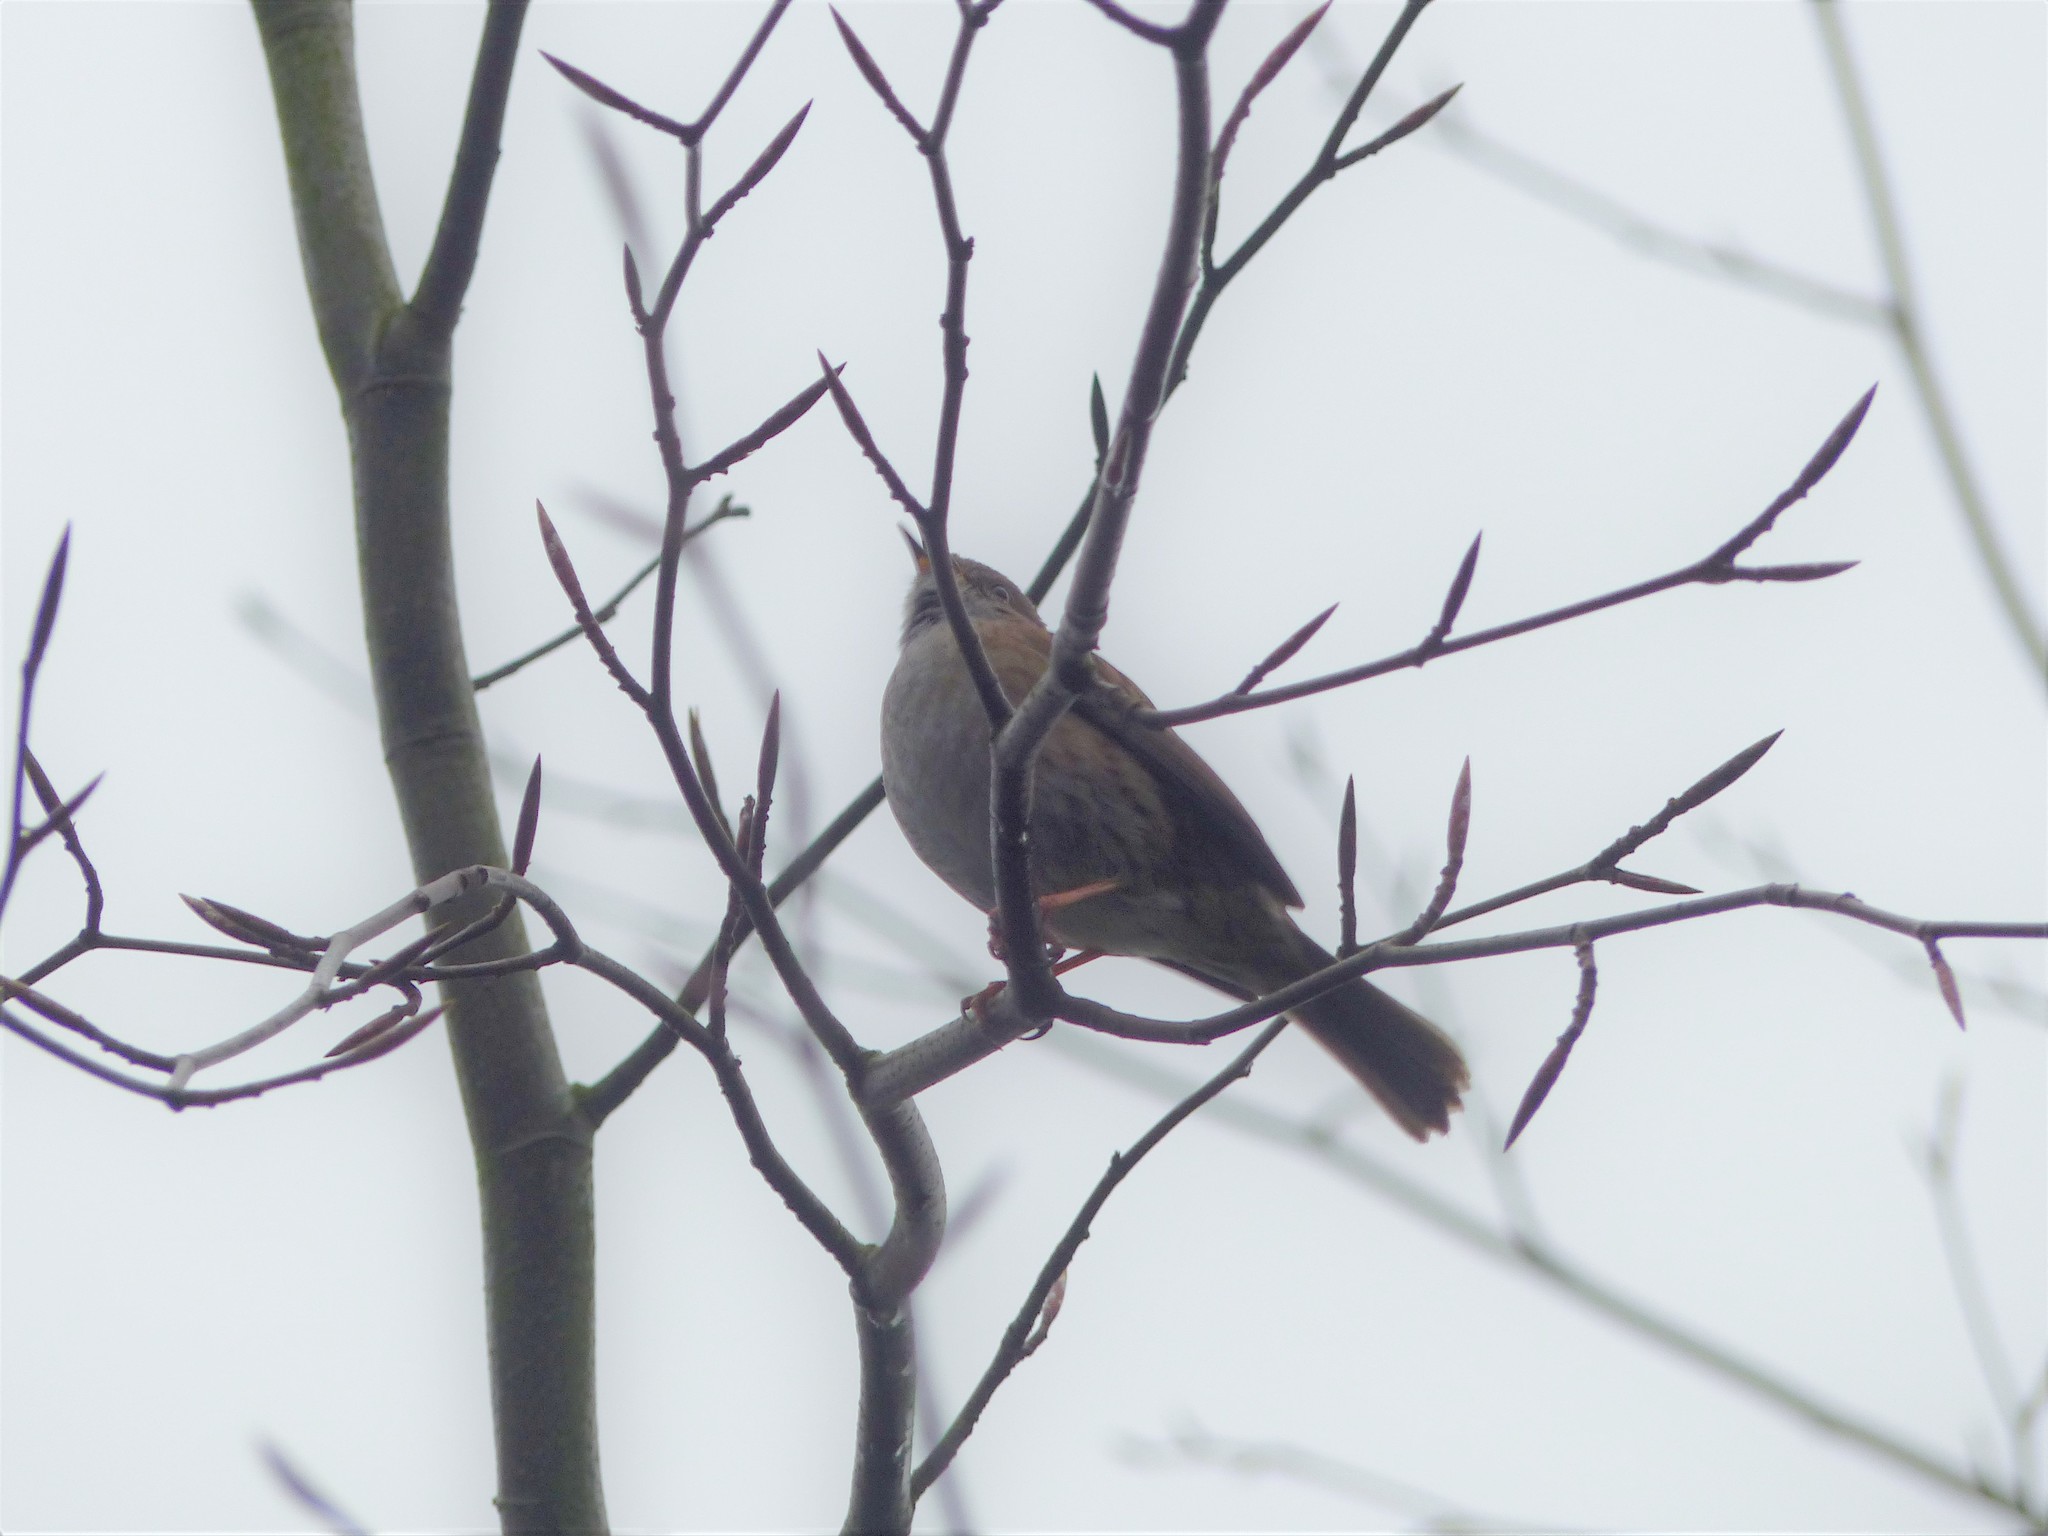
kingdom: Animalia
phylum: Chordata
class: Aves
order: Passeriformes
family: Prunellidae
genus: Prunella
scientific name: Prunella modularis
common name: Dunnock
